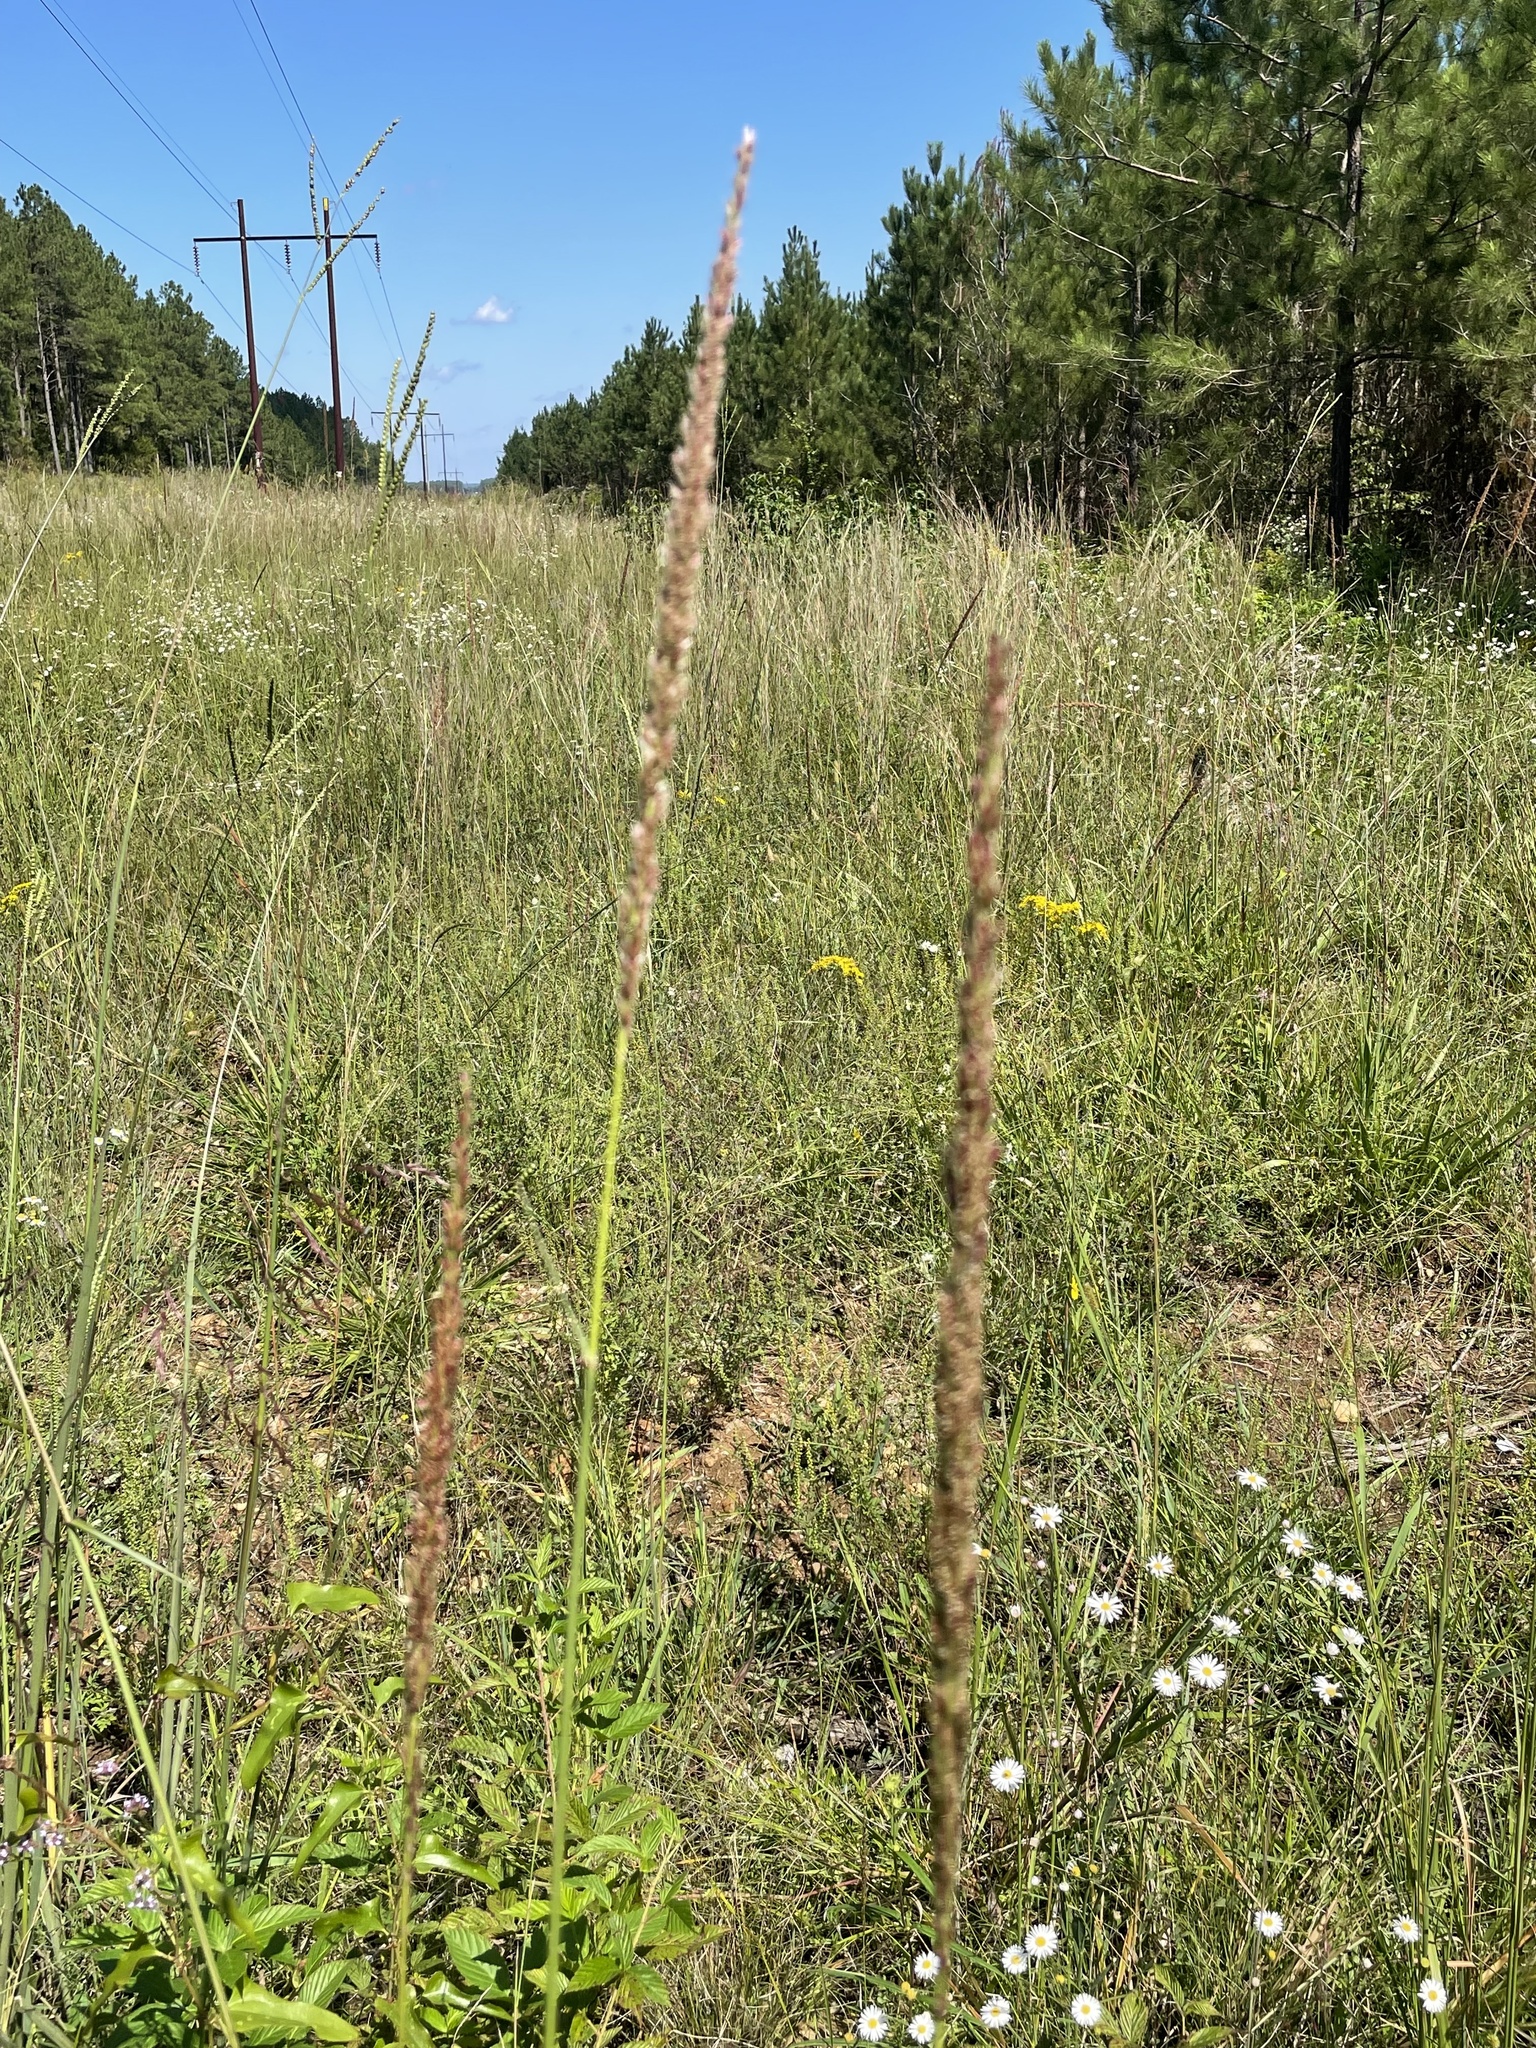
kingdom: Plantae
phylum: Tracheophyta
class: Liliopsida
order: Poales
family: Poaceae
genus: Tridens
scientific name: Tridens strictus
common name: Long-spike tridens
